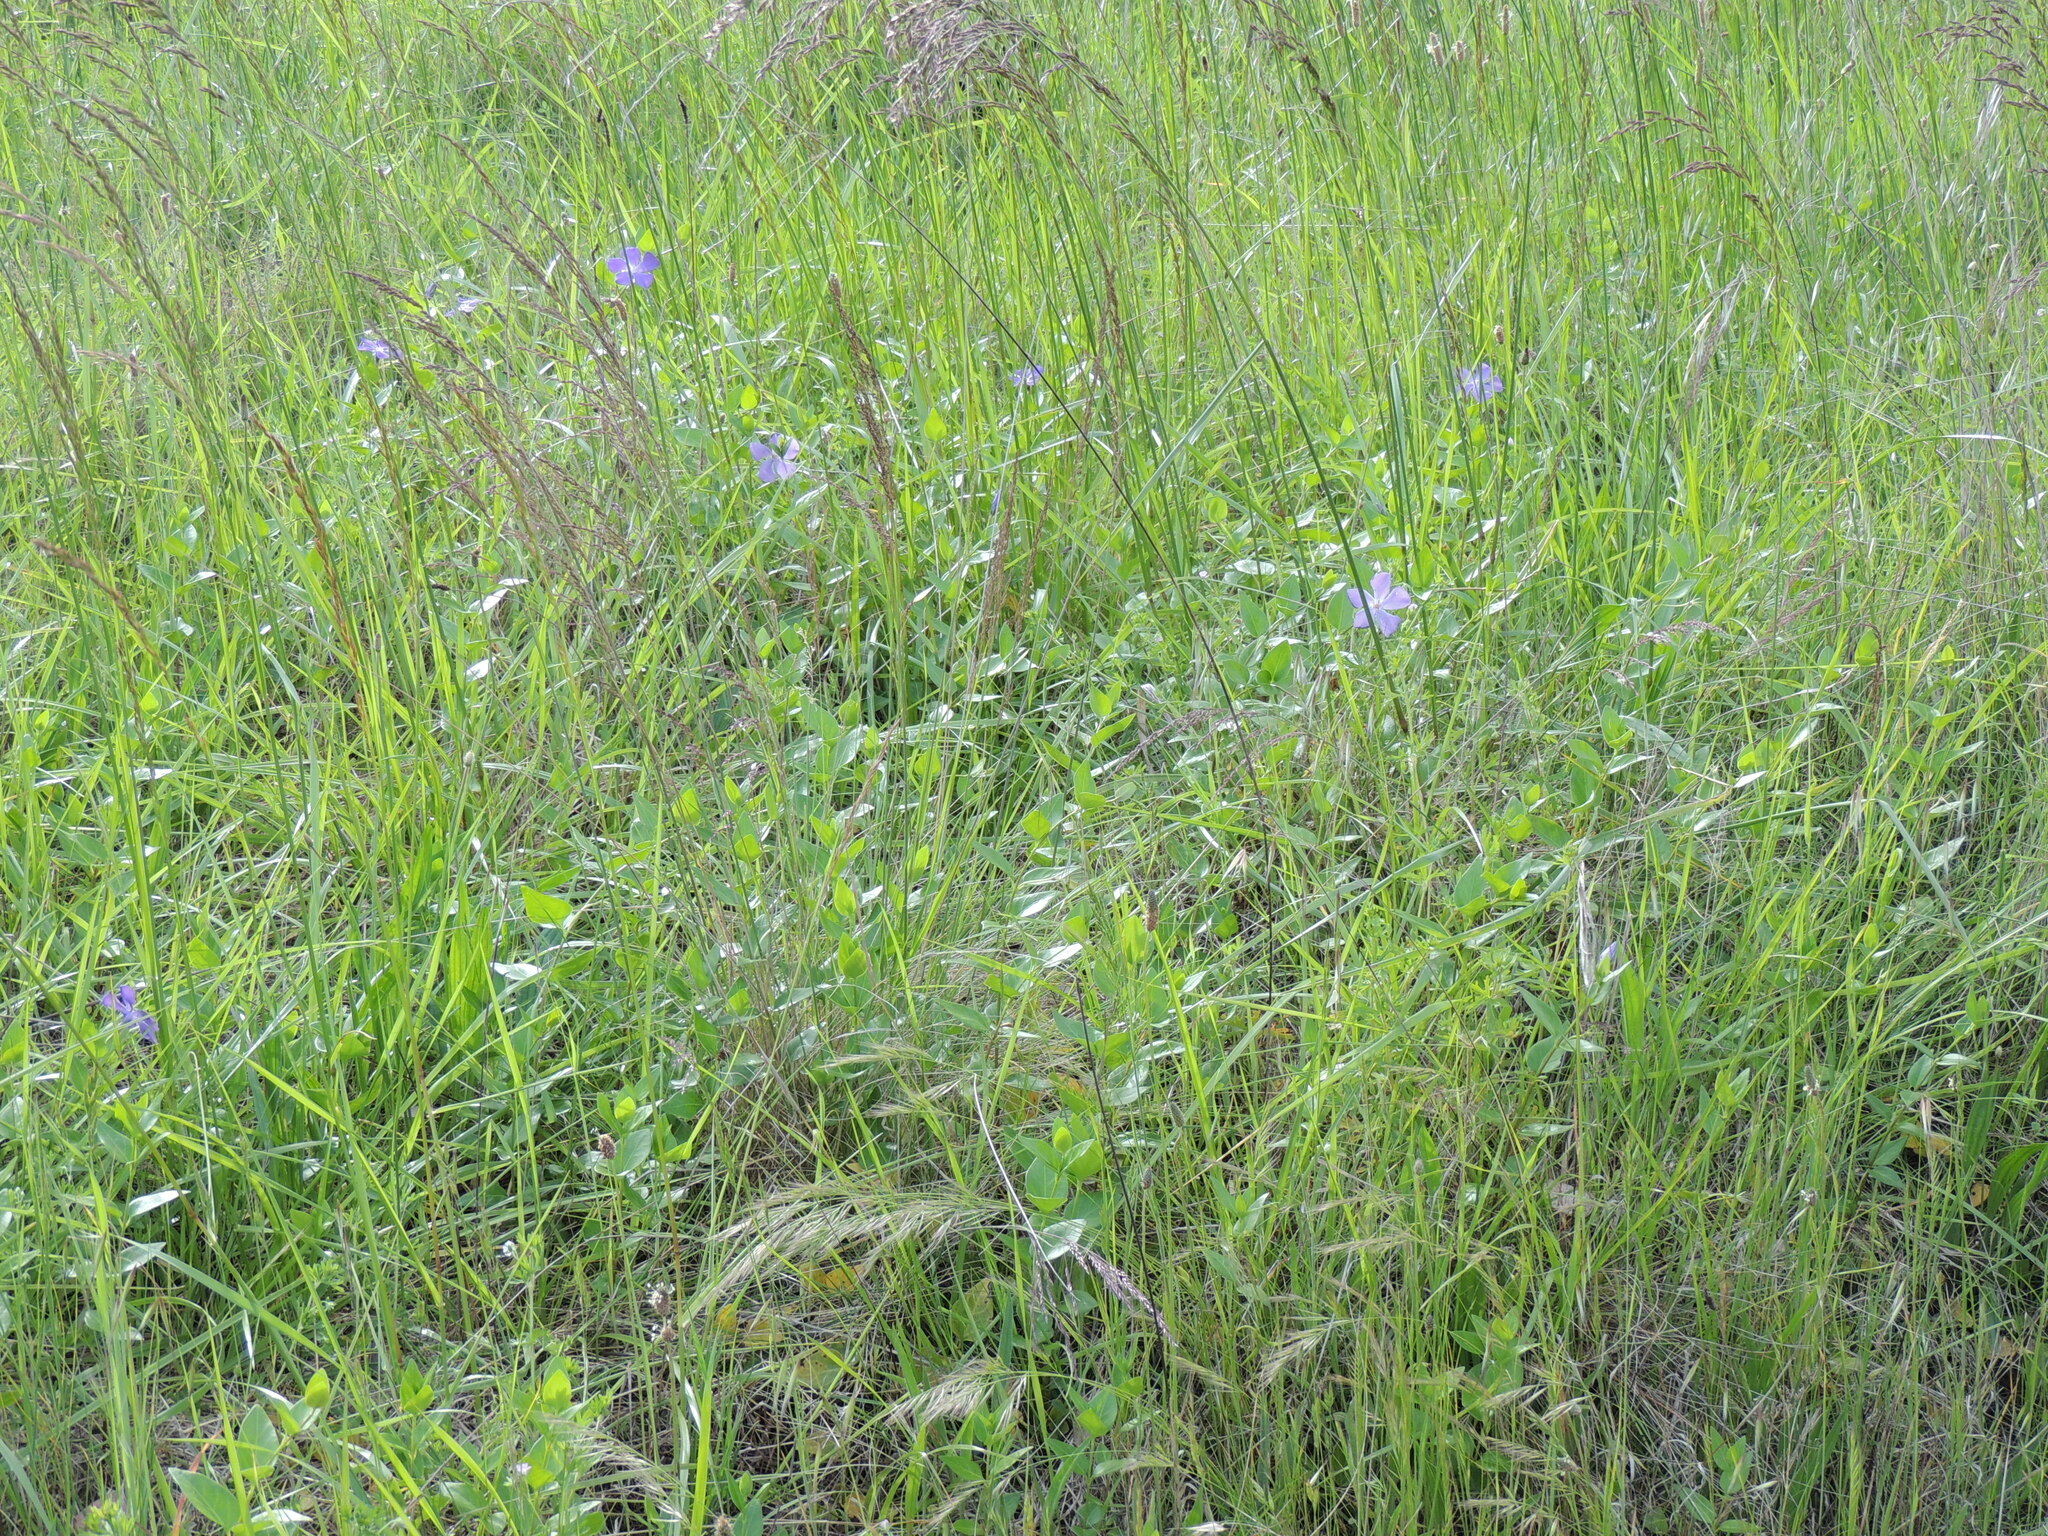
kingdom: Plantae
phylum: Tracheophyta
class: Magnoliopsida
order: Gentianales
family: Apocynaceae
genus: Vinca
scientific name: Vinca major
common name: Greater periwinkle
